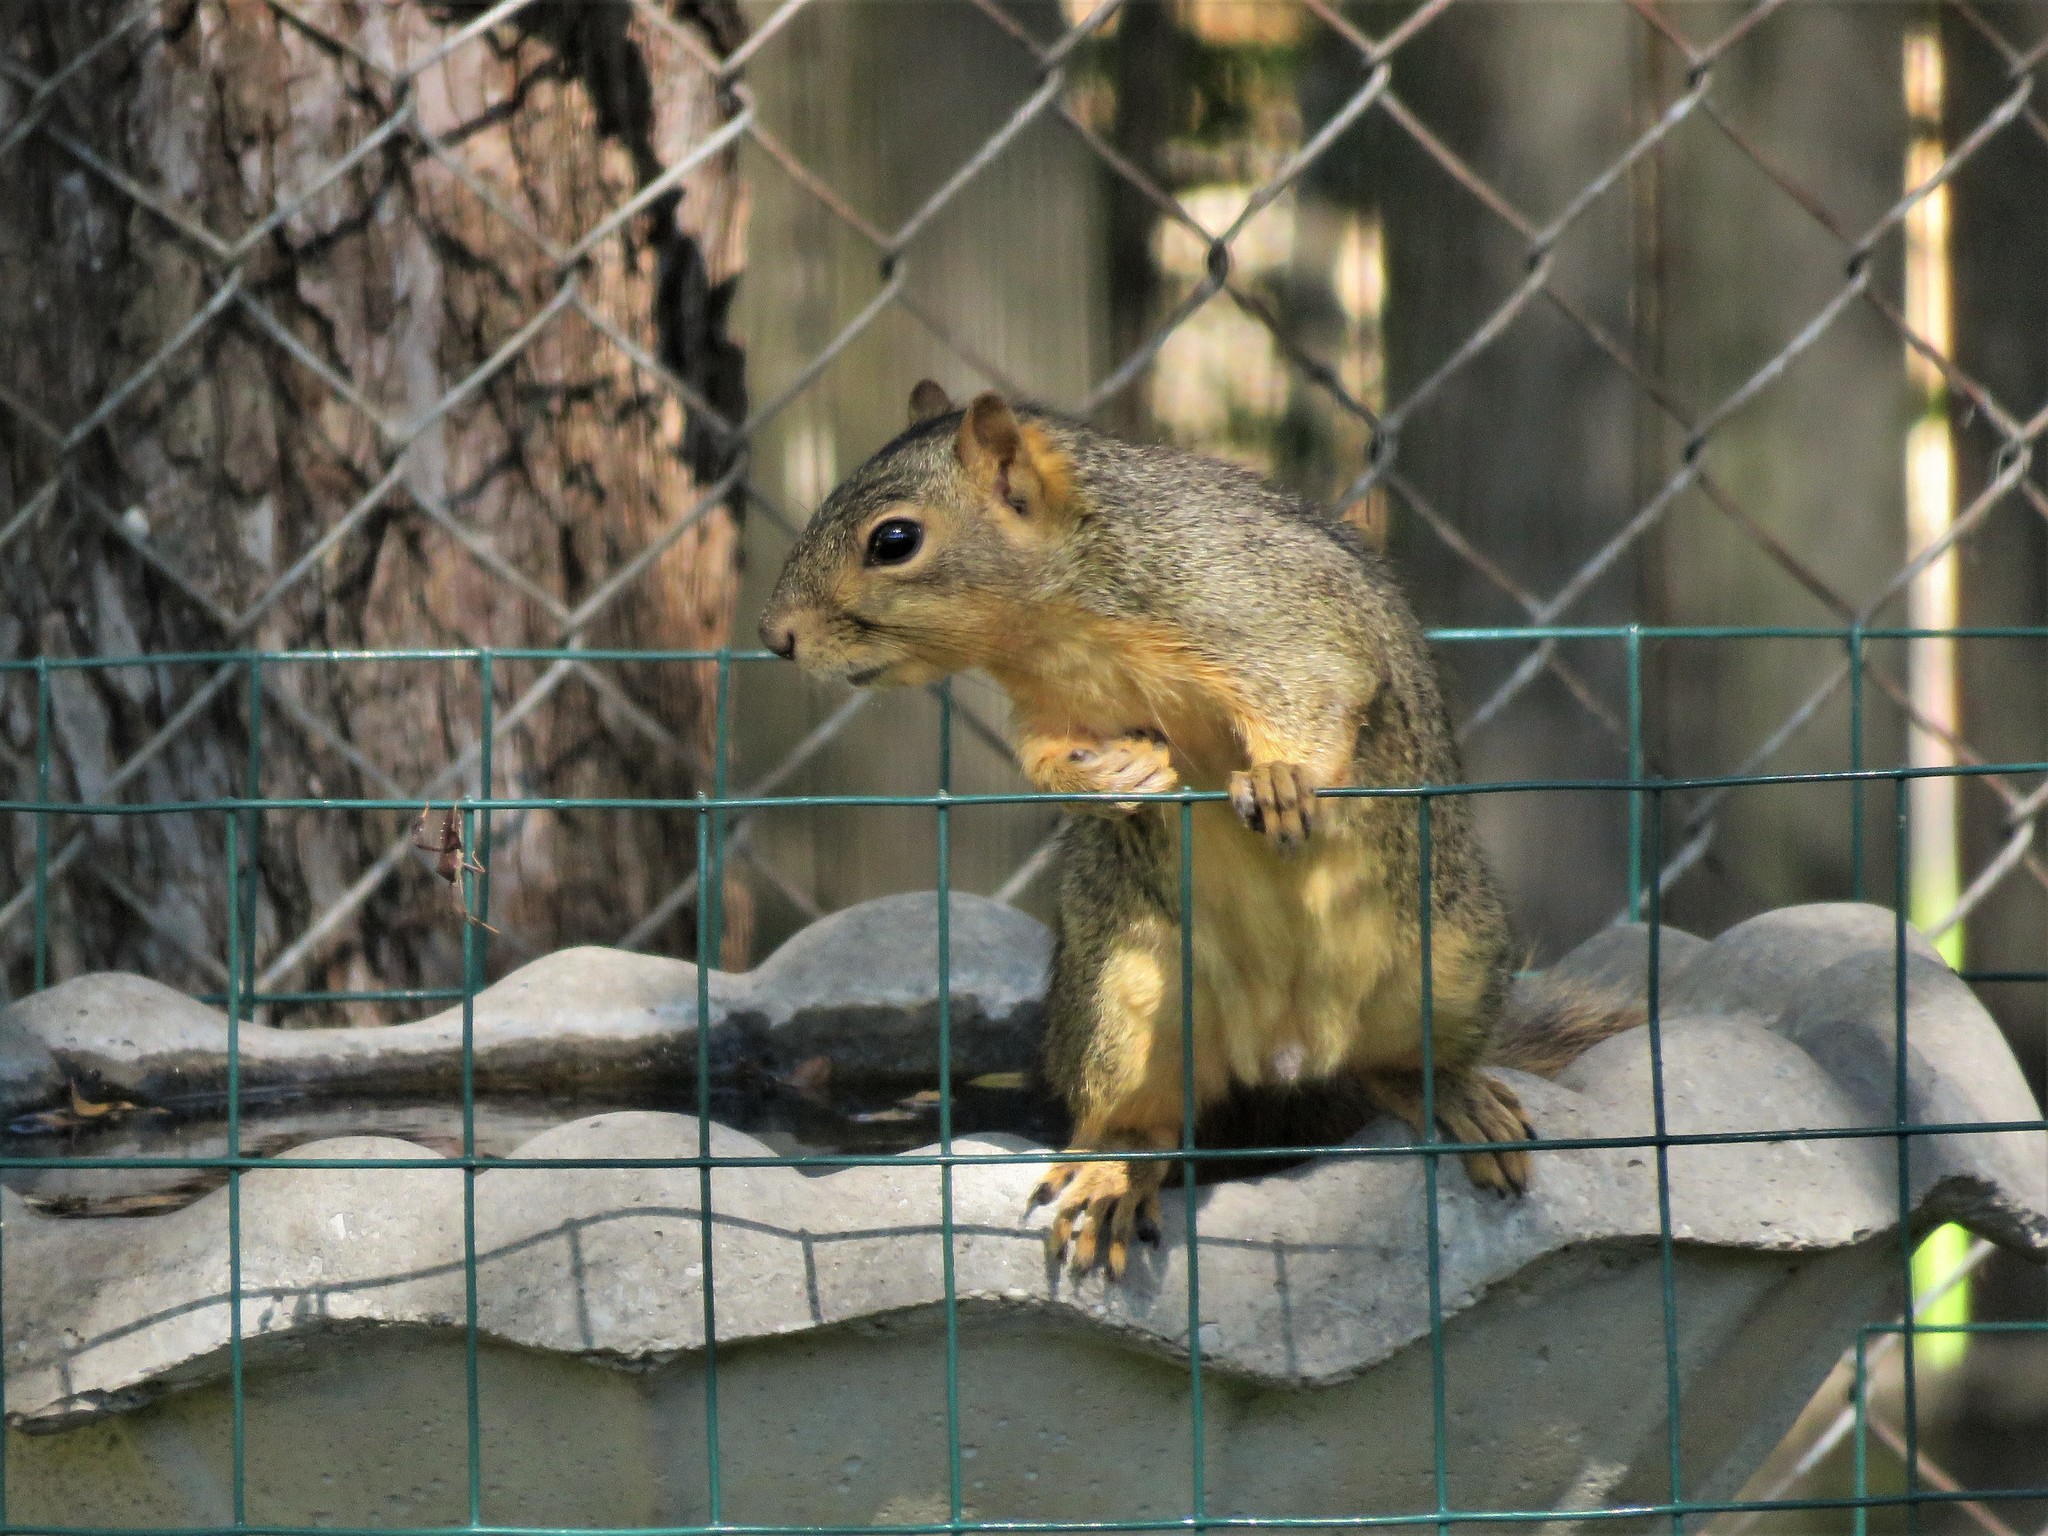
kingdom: Animalia
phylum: Chordata
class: Mammalia
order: Rodentia
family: Sciuridae
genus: Sciurus
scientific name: Sciurus niger
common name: Fox squirrel
